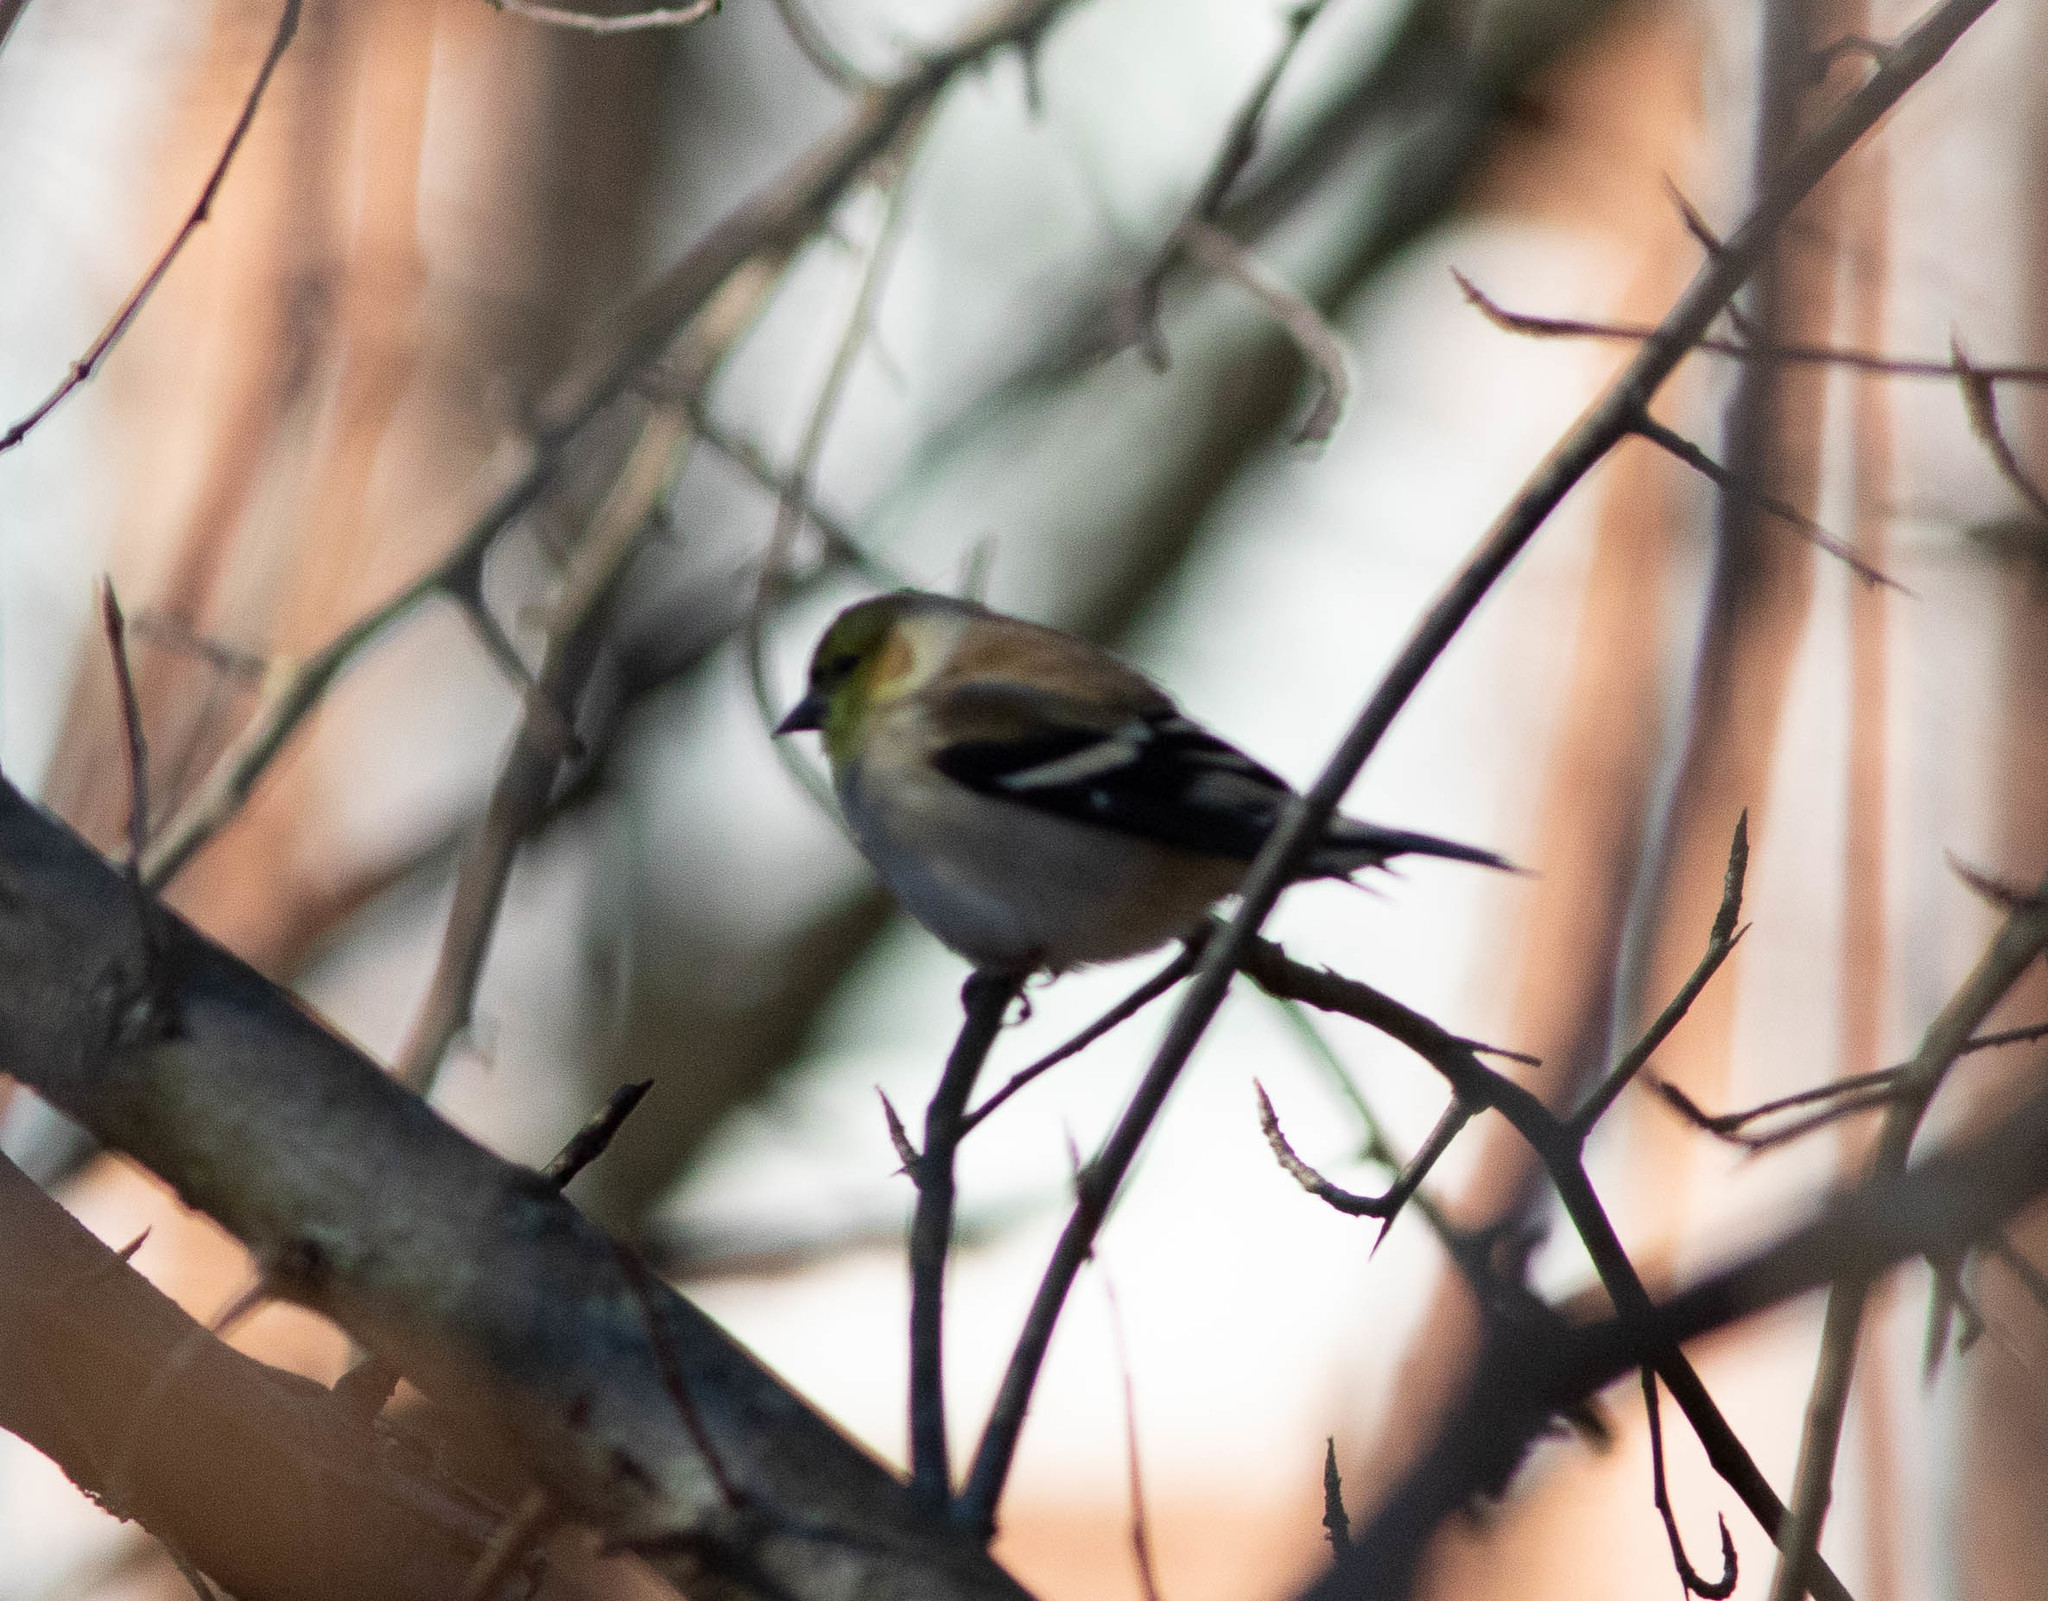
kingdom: Animalia
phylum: Chordata
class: Aves
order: Passeriformes
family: Fringillidae
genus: Spinus
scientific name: Spinus tristis
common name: American goldfinch
